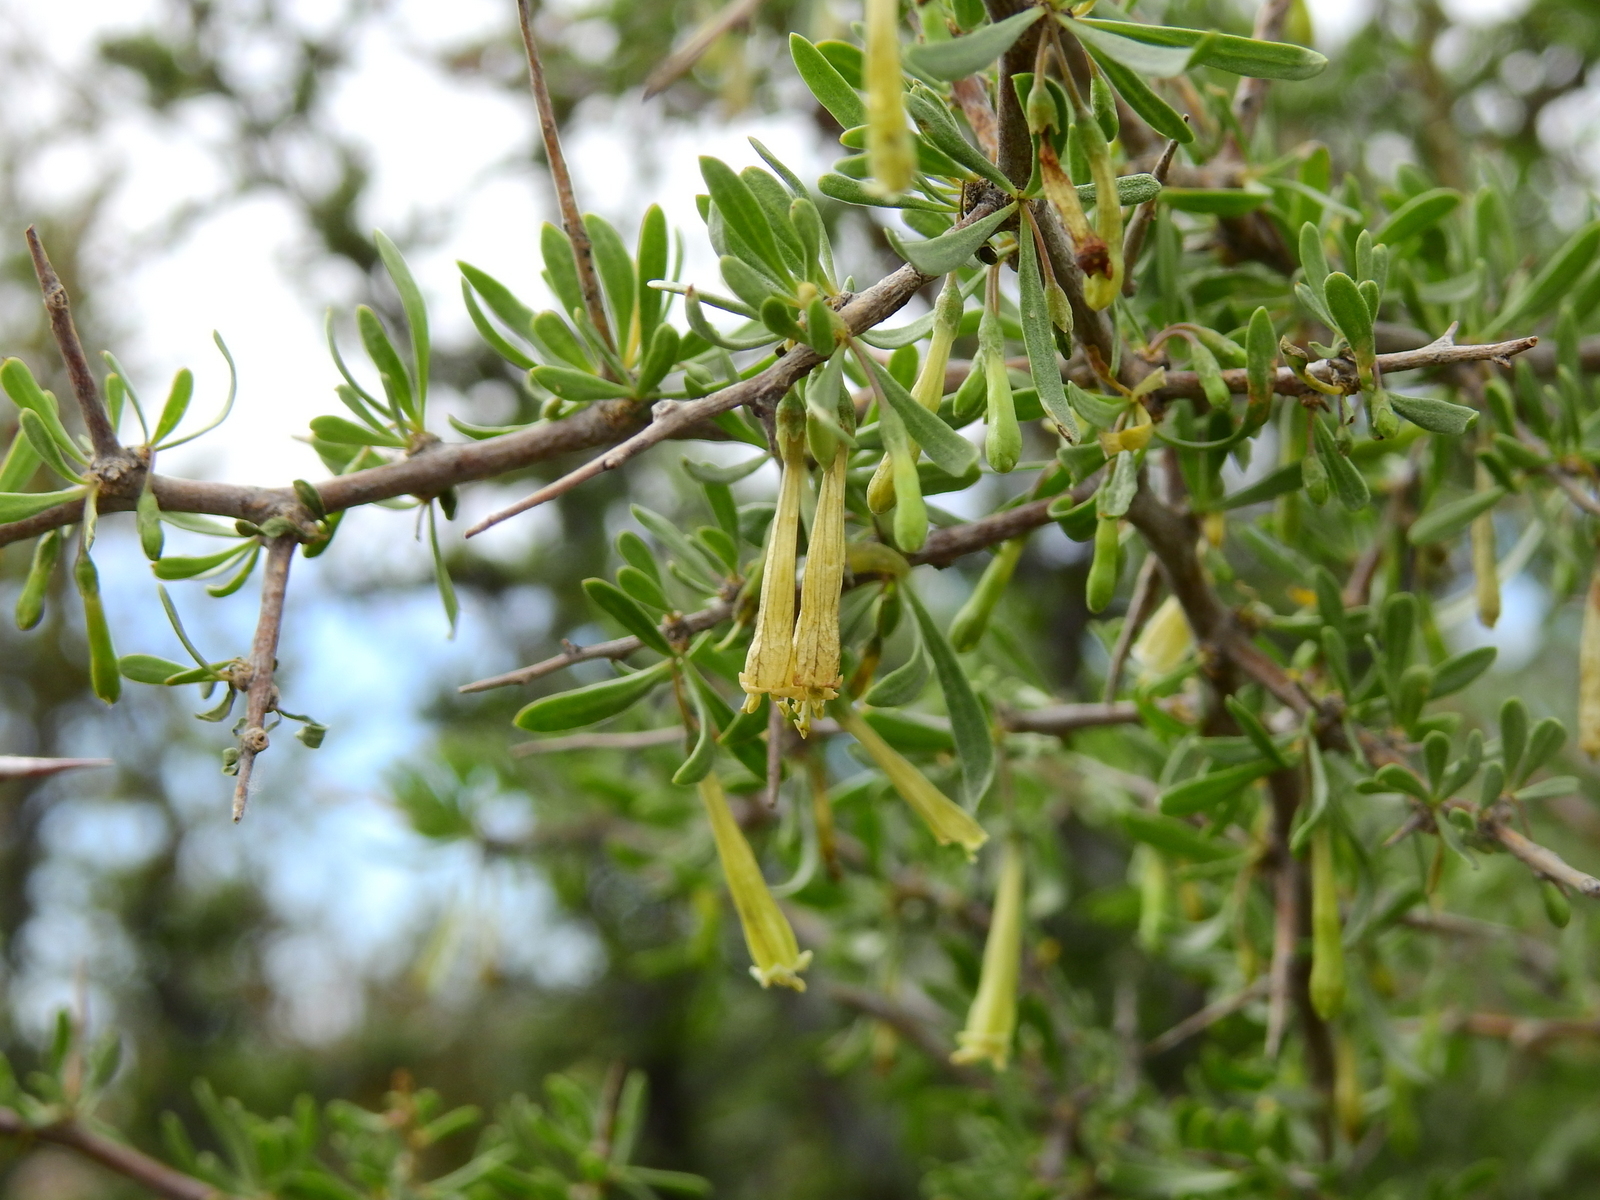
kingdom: Plantae
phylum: Tracheophyta
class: Magnoliopsida
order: Solanales
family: Solanaceae
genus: Lycium
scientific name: Lycium gilliesianum
